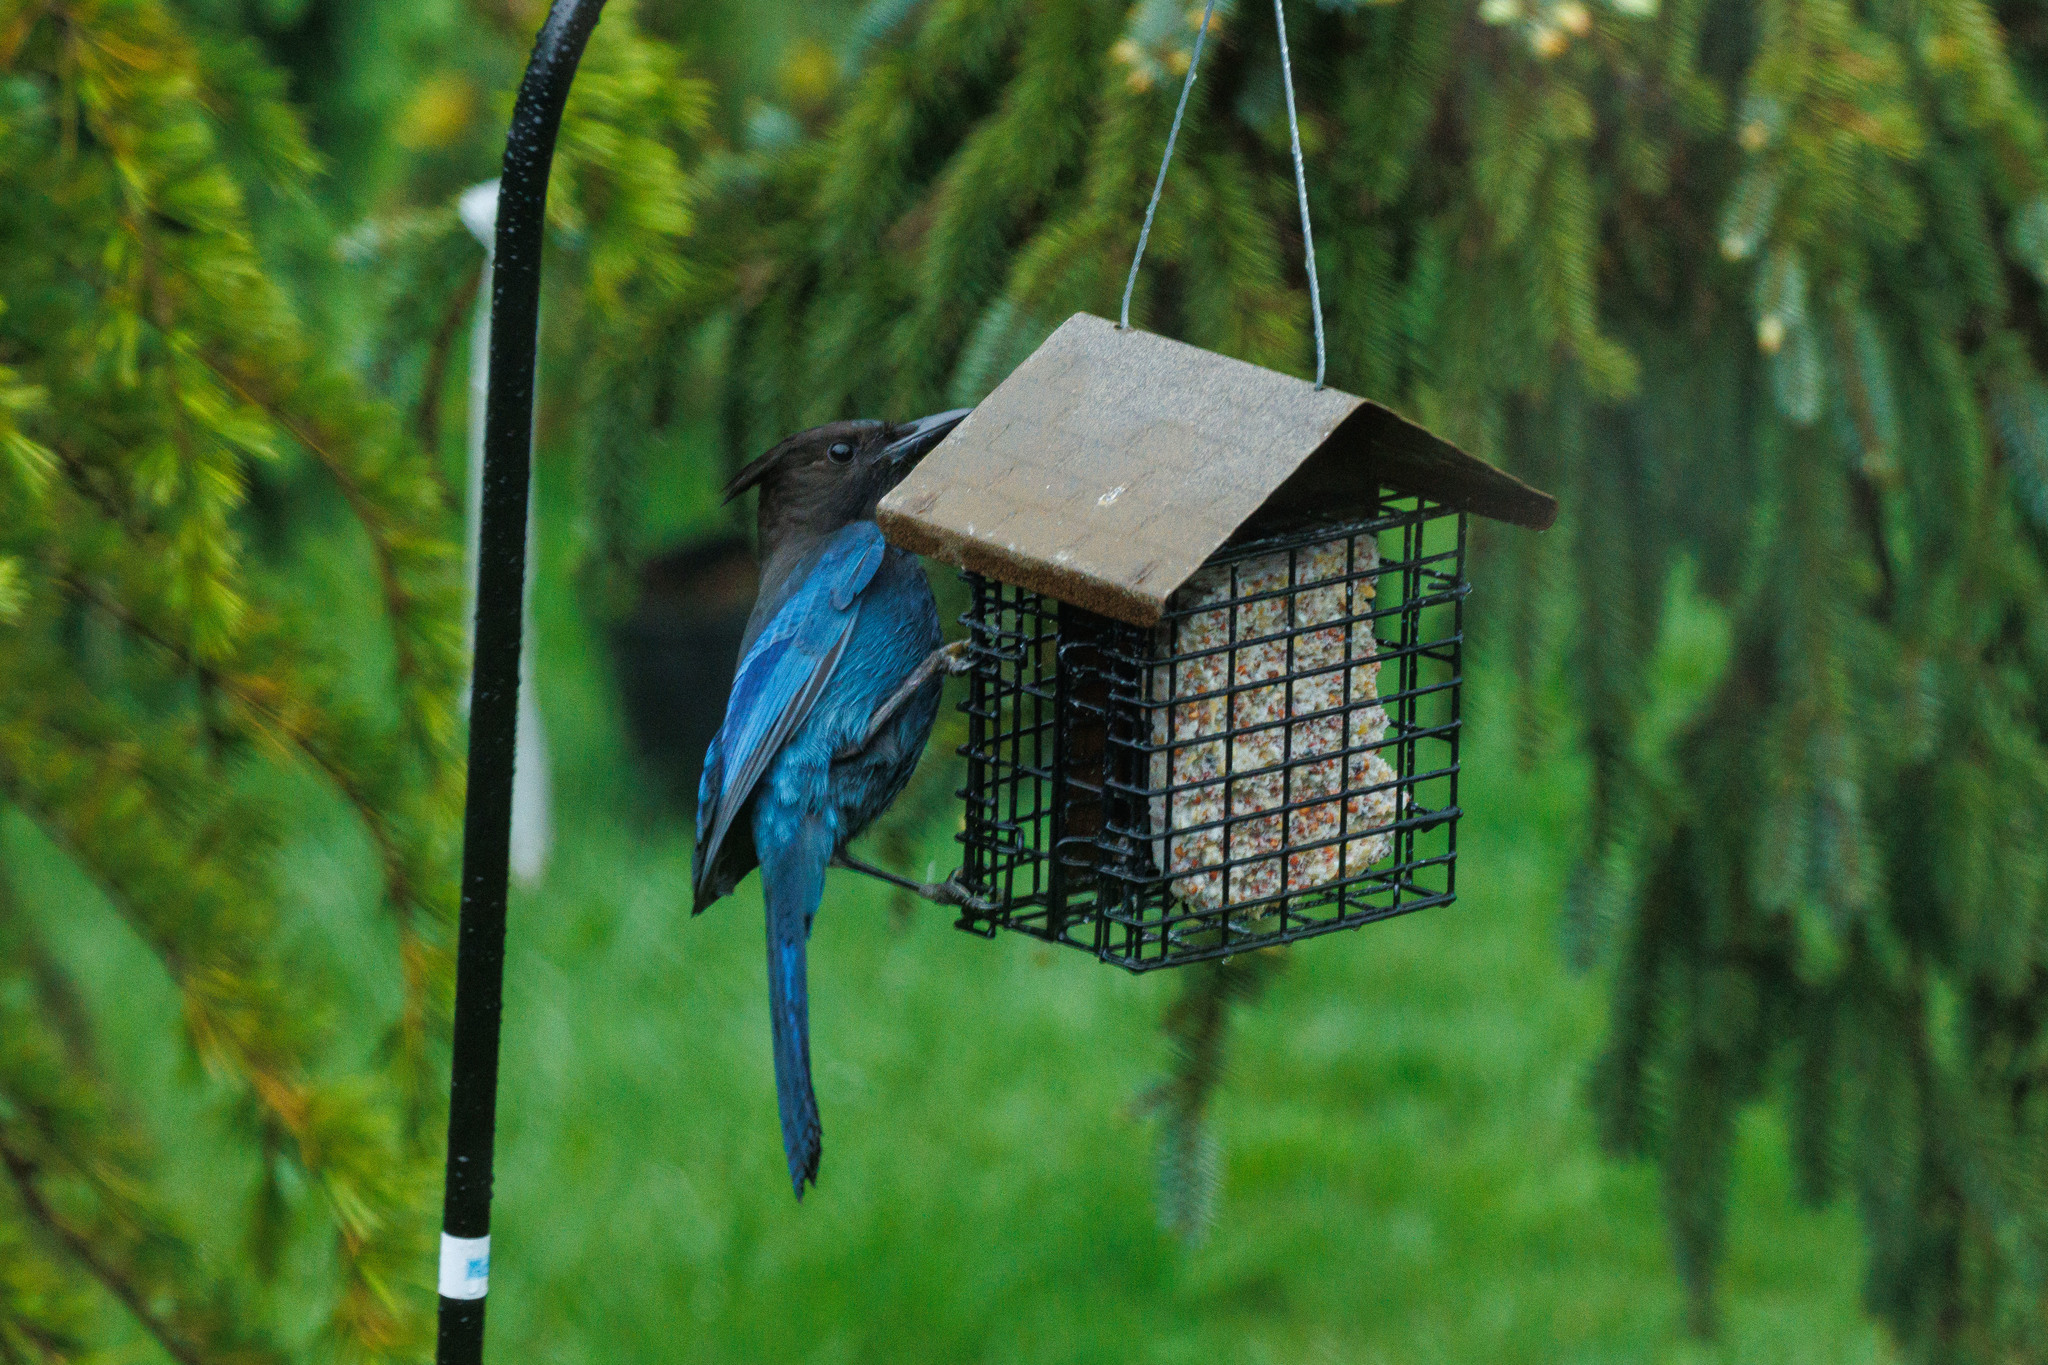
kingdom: Animalia
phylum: Chordata
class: Aves
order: Passeriformes
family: Corvidae
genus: Cyanocitta
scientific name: Cyanocitta stelleri
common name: Steller's jay
